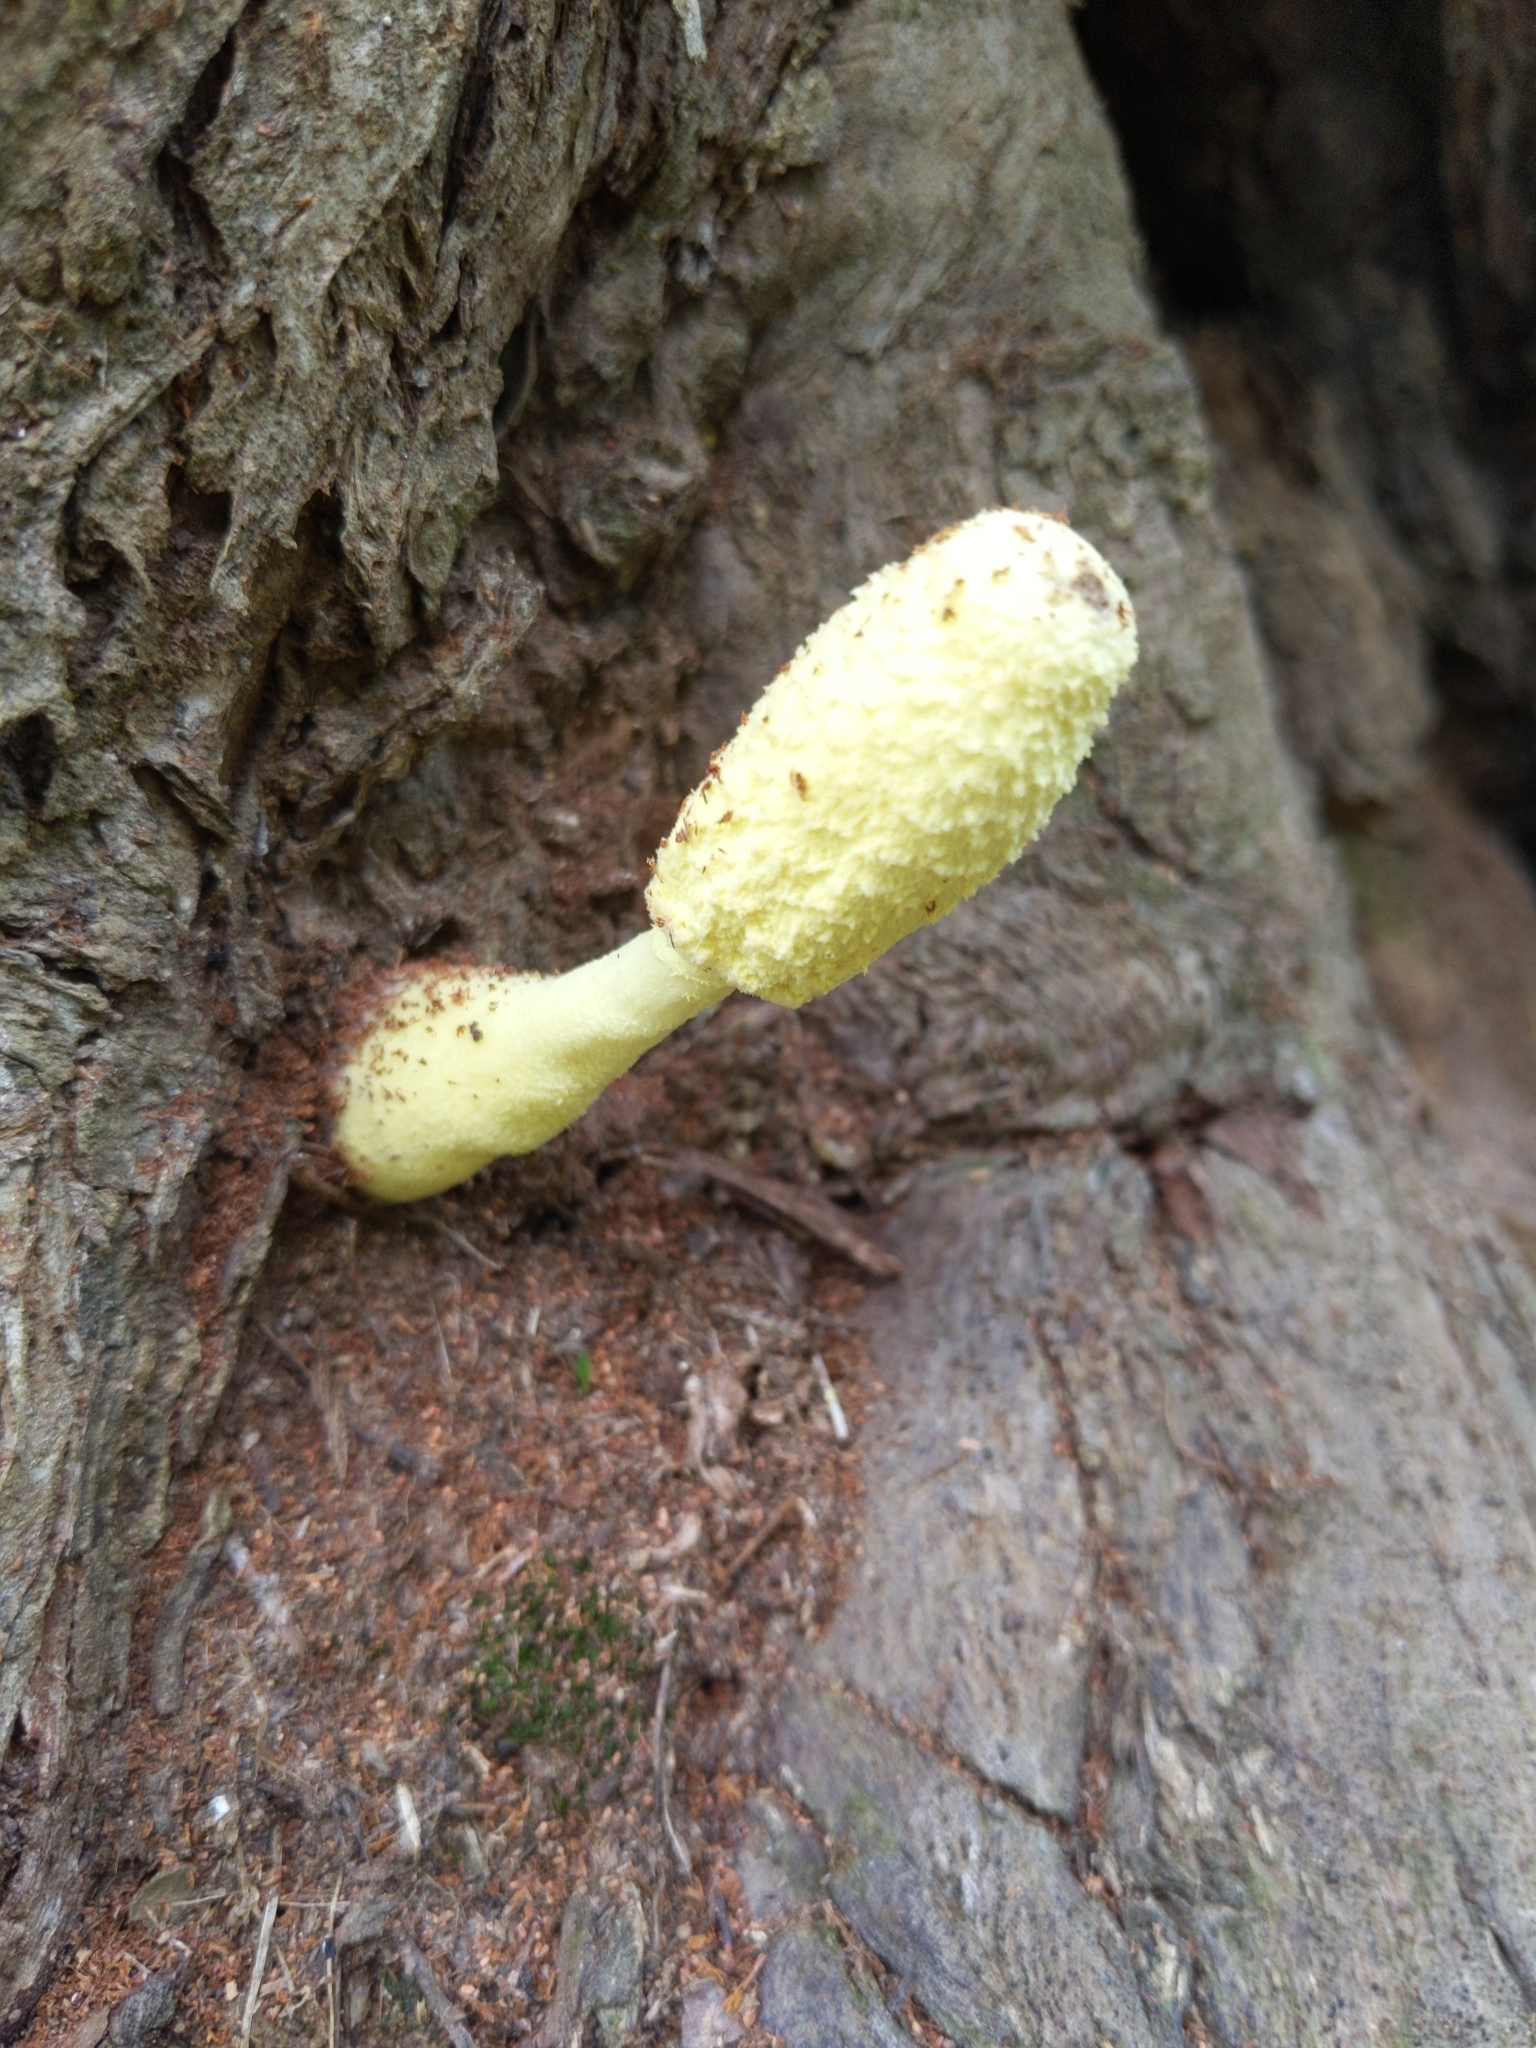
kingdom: Fungi
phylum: Basidiomycota
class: Agaricomycetes
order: Agaricales
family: Agaricaceae
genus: Leucocoprinus
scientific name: Leucocoprinus birnbaumii
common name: Plantpot dapperling
